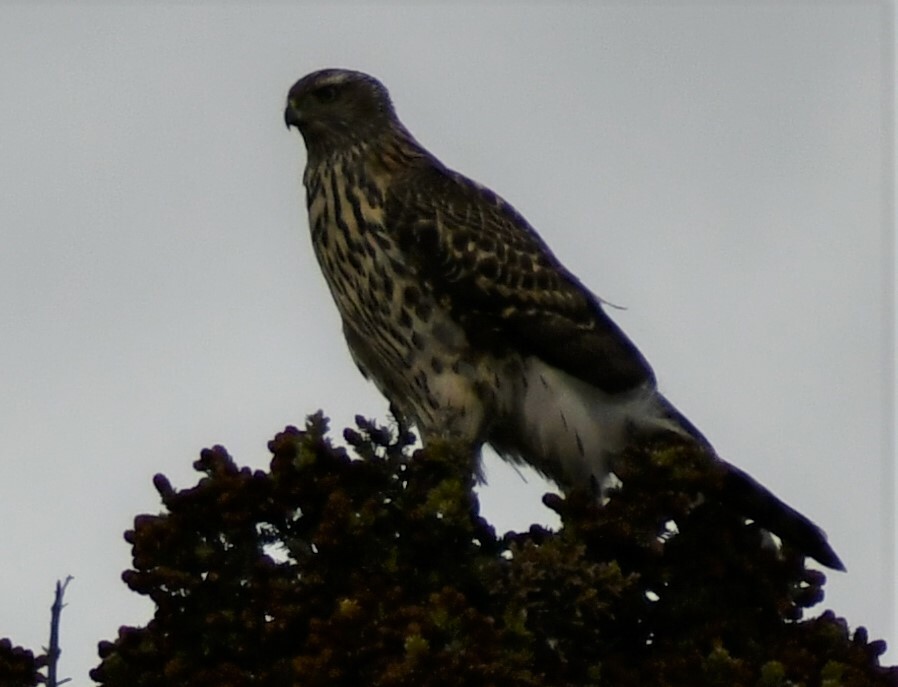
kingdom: Animalia
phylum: Chordata
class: Aves
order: Accipitriformes
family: Accipitridae
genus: Accipiter
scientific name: Accipiter gentilis
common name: Northern goshawk
